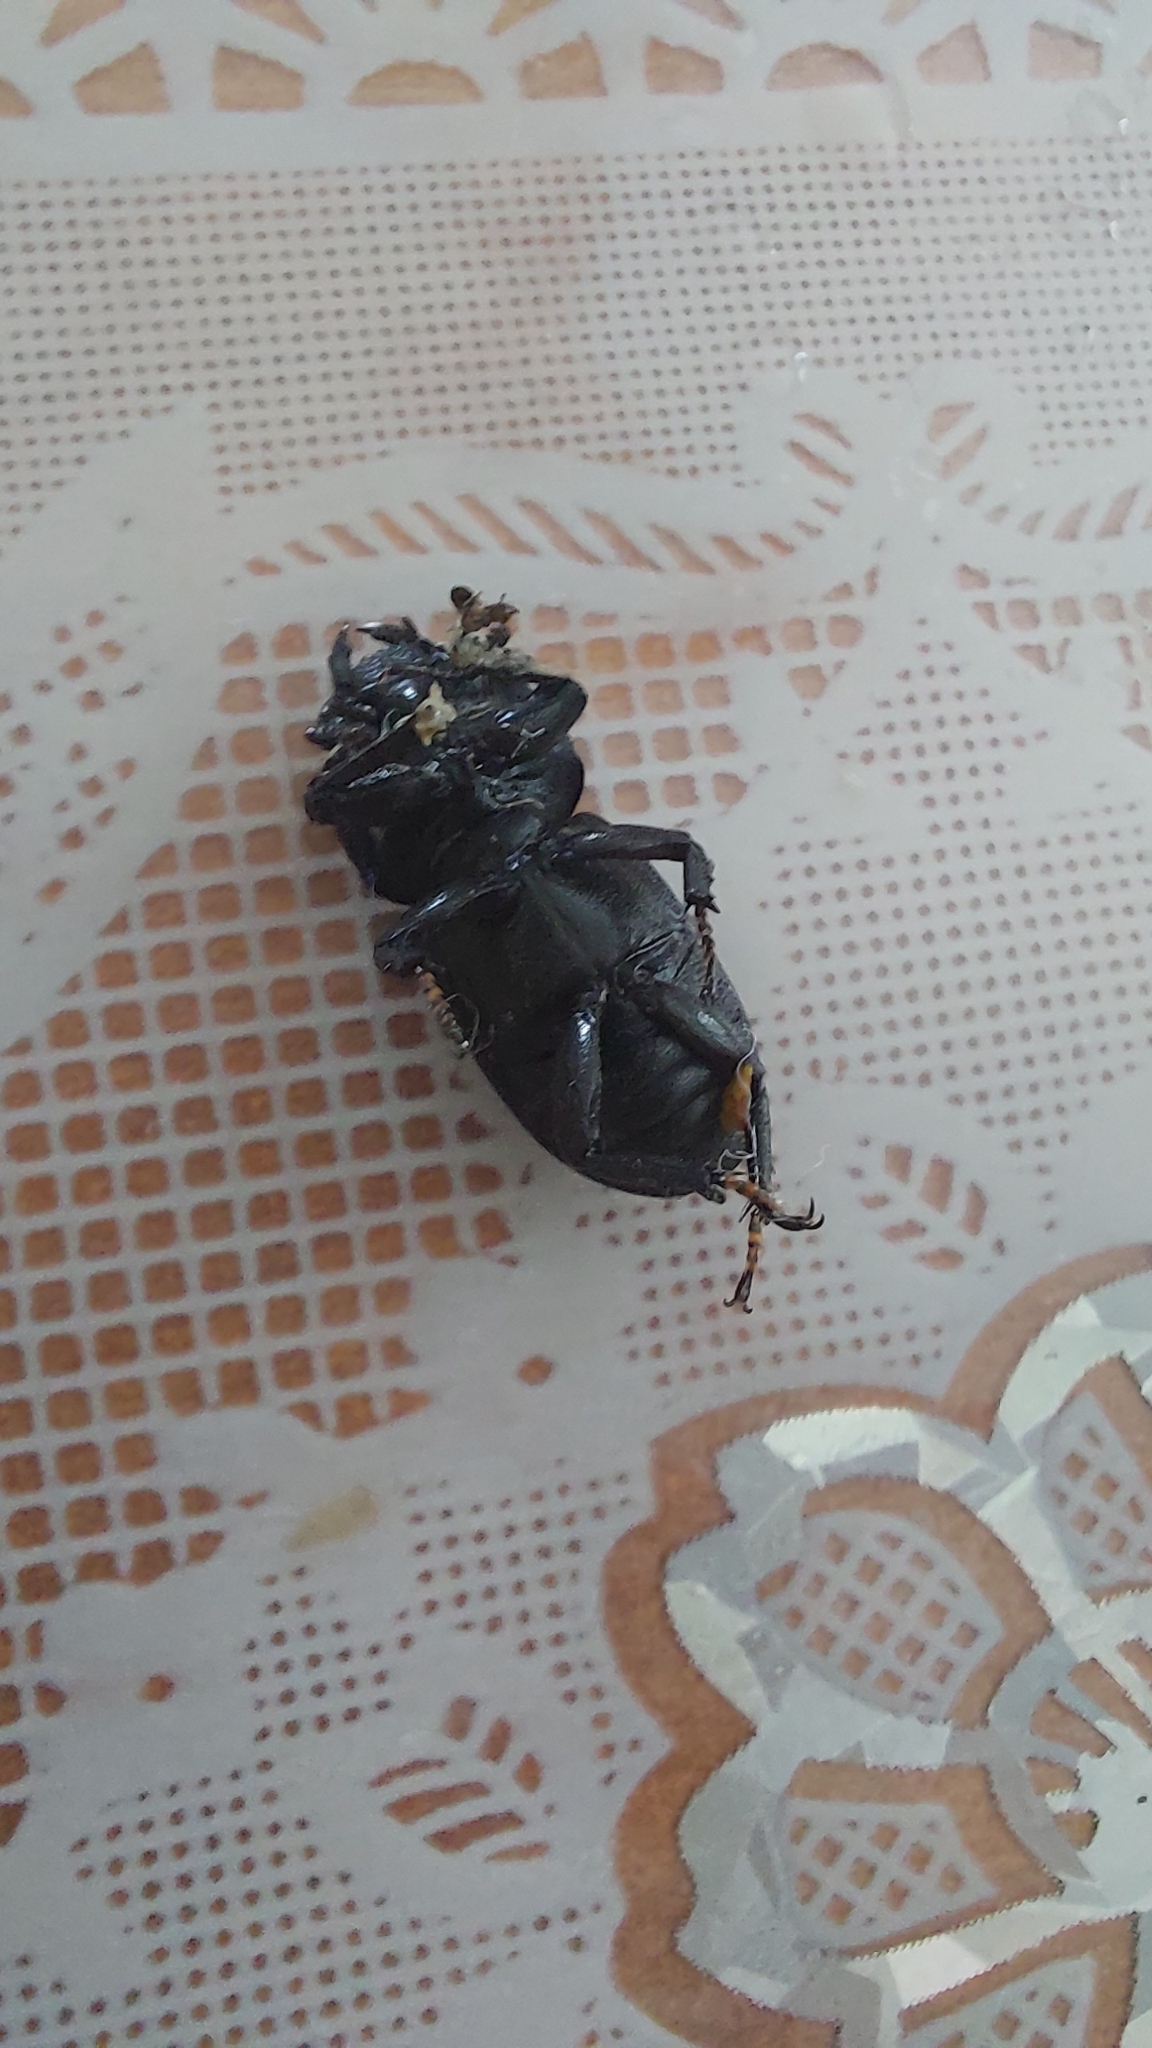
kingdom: Animalia
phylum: Arthropoda
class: Insecta
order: Coleoptera
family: Lucanidae
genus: Dorcus
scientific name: Dorcus parallelipipedus
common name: Lesser stag beetle
